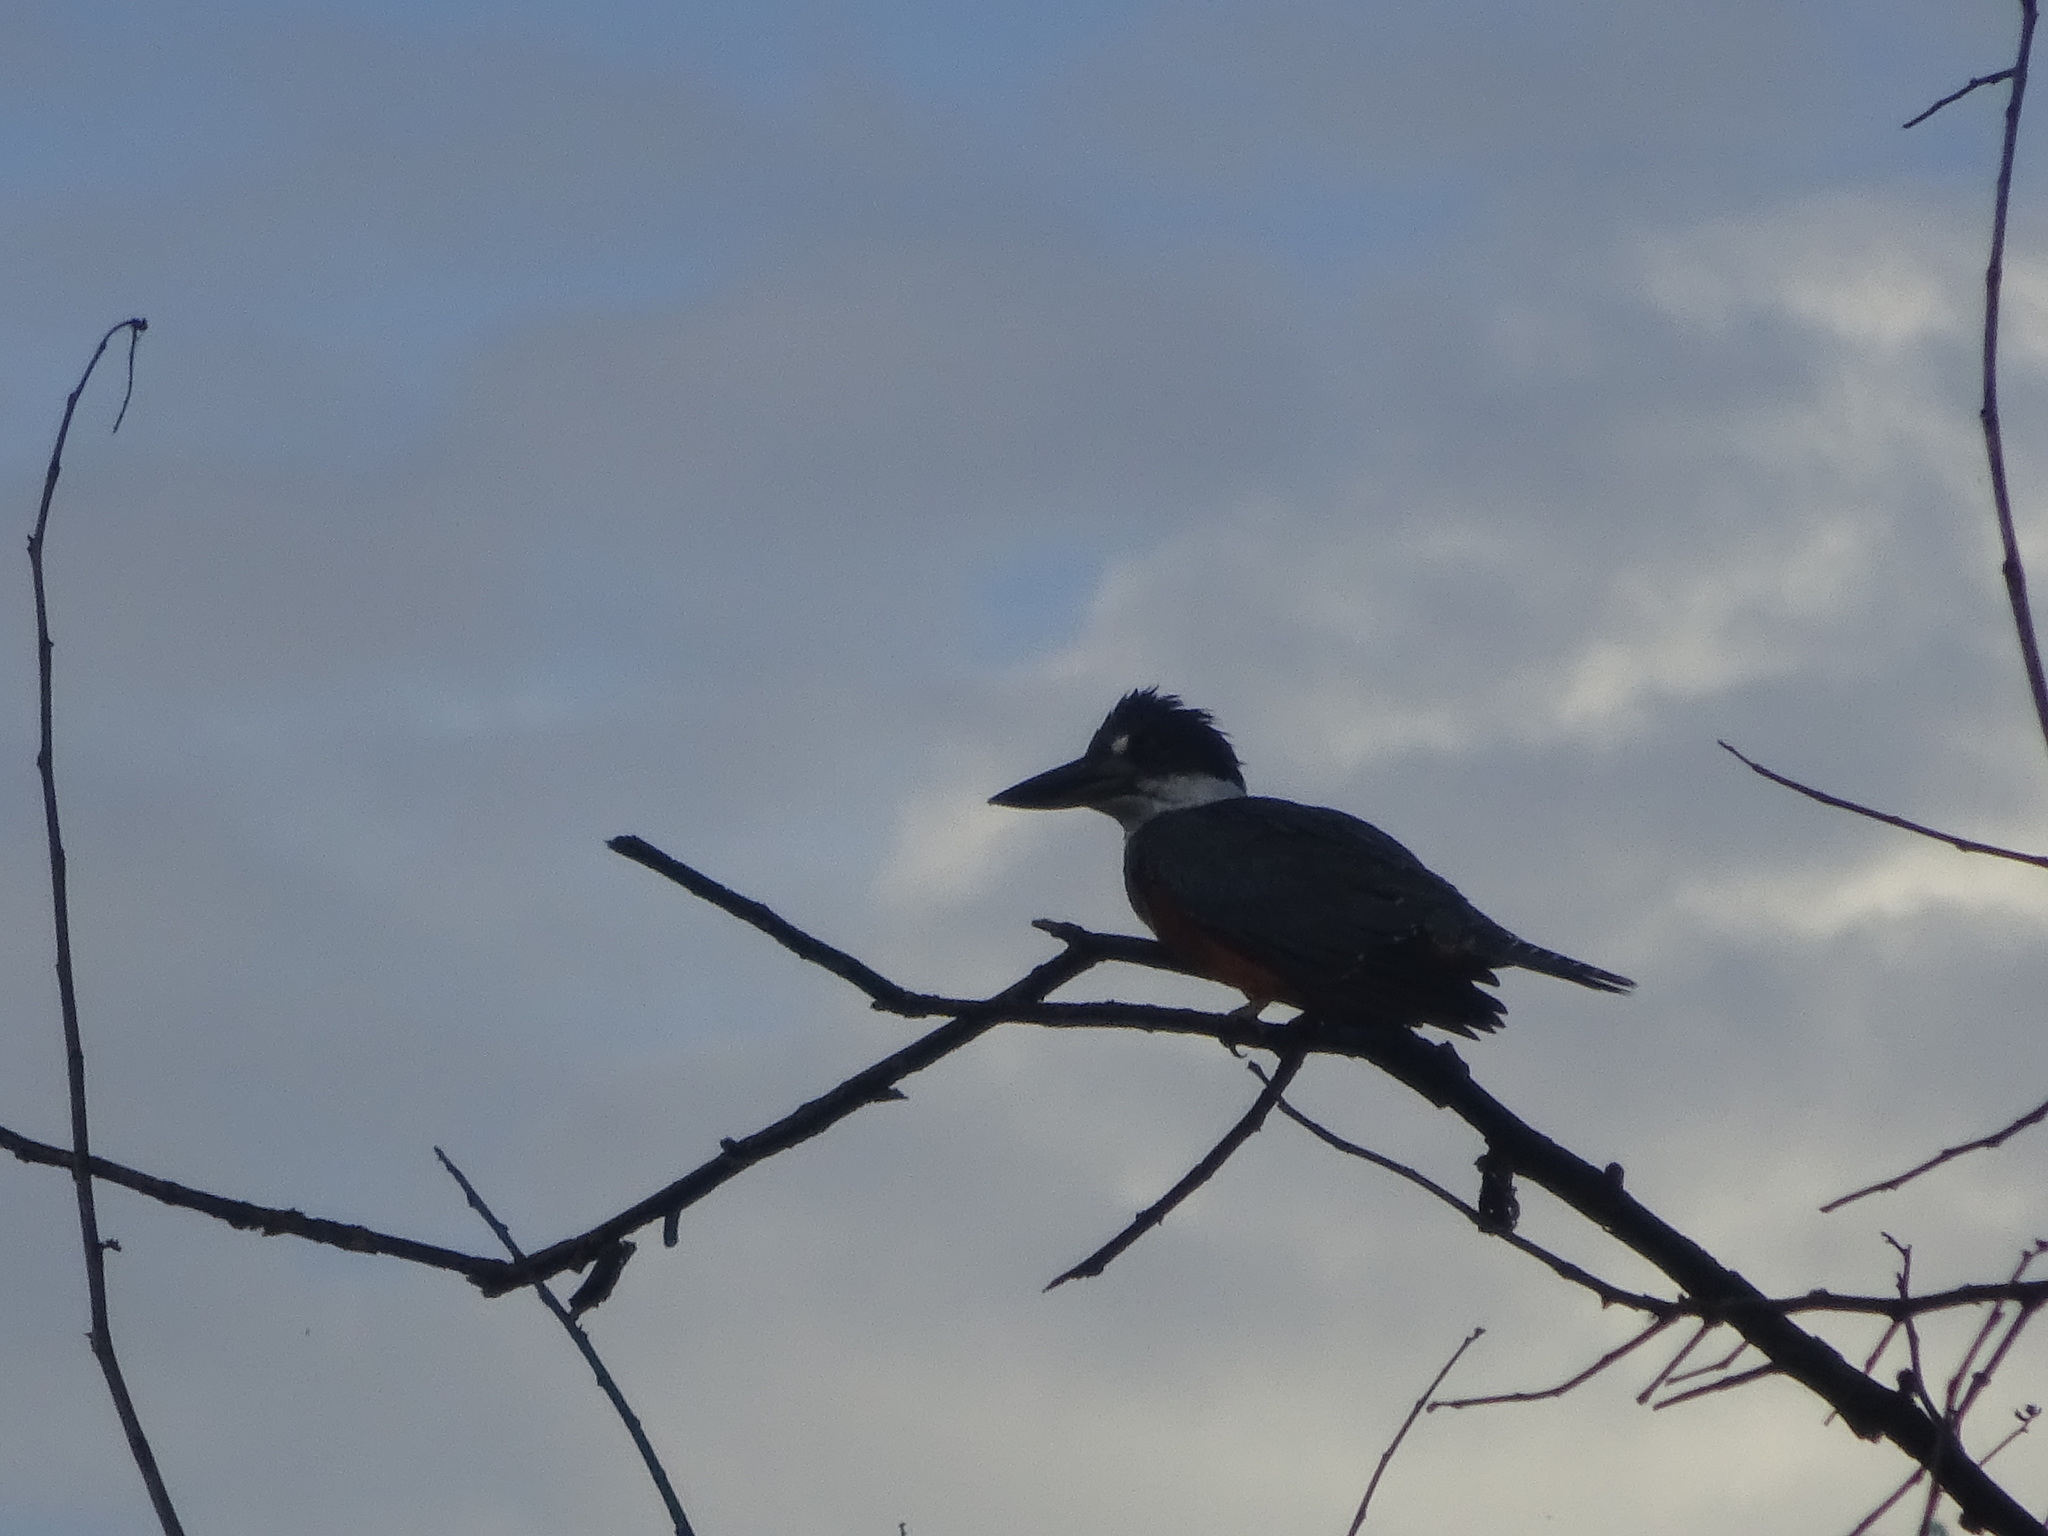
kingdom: Animalia
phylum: Chordata
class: Aves
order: Coraciiformes
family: Alcedinidae
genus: Megaceryle
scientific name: Megaceryle torquata
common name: Ringed kingfisher
